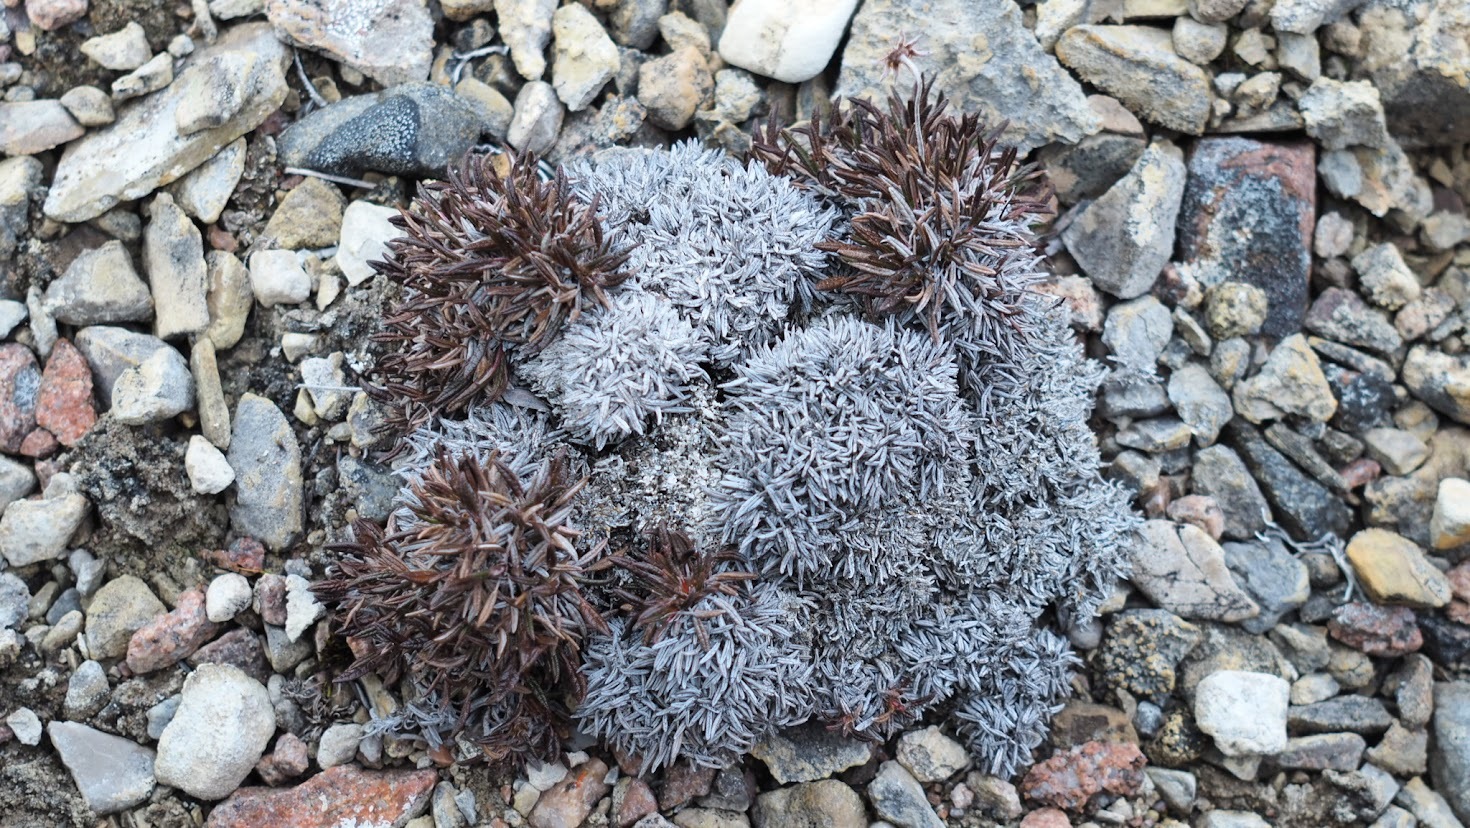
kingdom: Plantae
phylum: Tracheophyta
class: Magnoliopsida
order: Rosales
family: Rosaceae
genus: Dryas
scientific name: Dryas integrifolia
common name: Entire-leaved mountain avens
